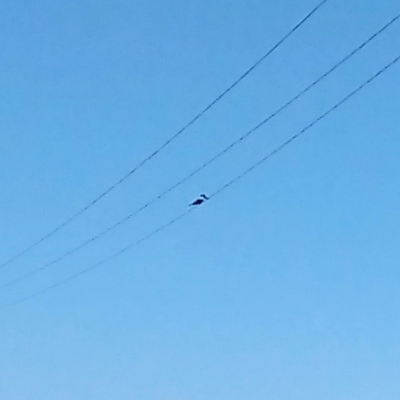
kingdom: Animalia
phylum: Chordata
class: Aves
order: Coraciiformes
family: Alcedinidae
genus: Megaceryle
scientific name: Megaceryle torquata
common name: Ringed kingfisher
